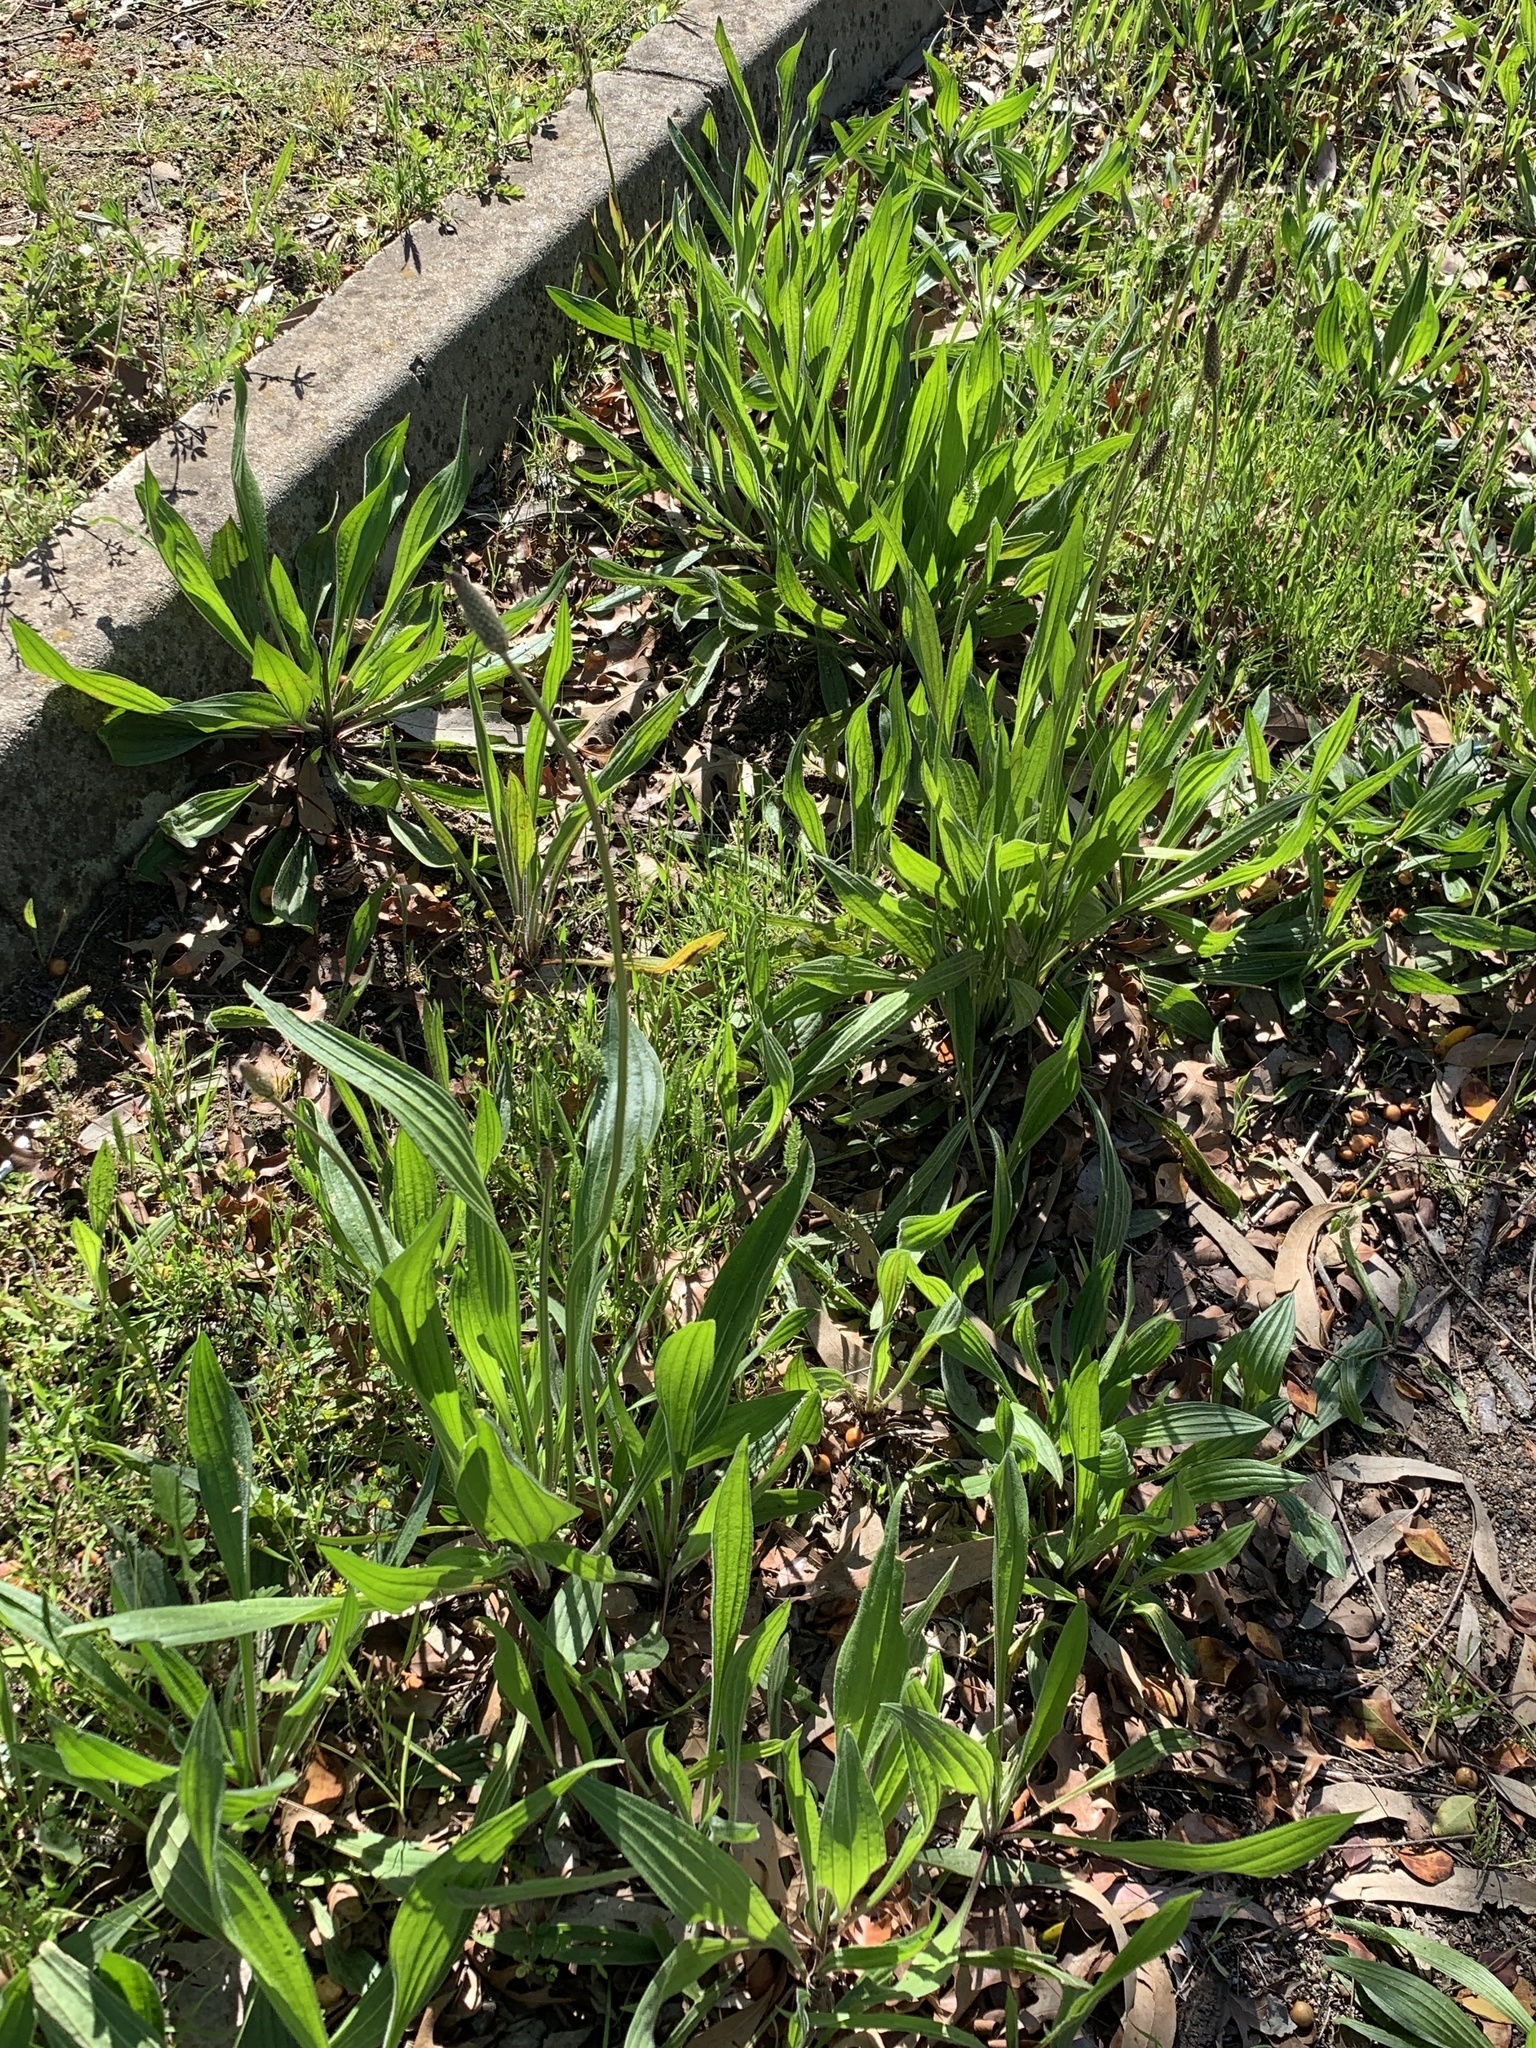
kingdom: Plantae
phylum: Tracheophyta
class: Magnoliopsida
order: Lamiales
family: Plantaginaceae
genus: Plantago
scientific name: Plantago lanceolata
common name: Ribwort plantain
